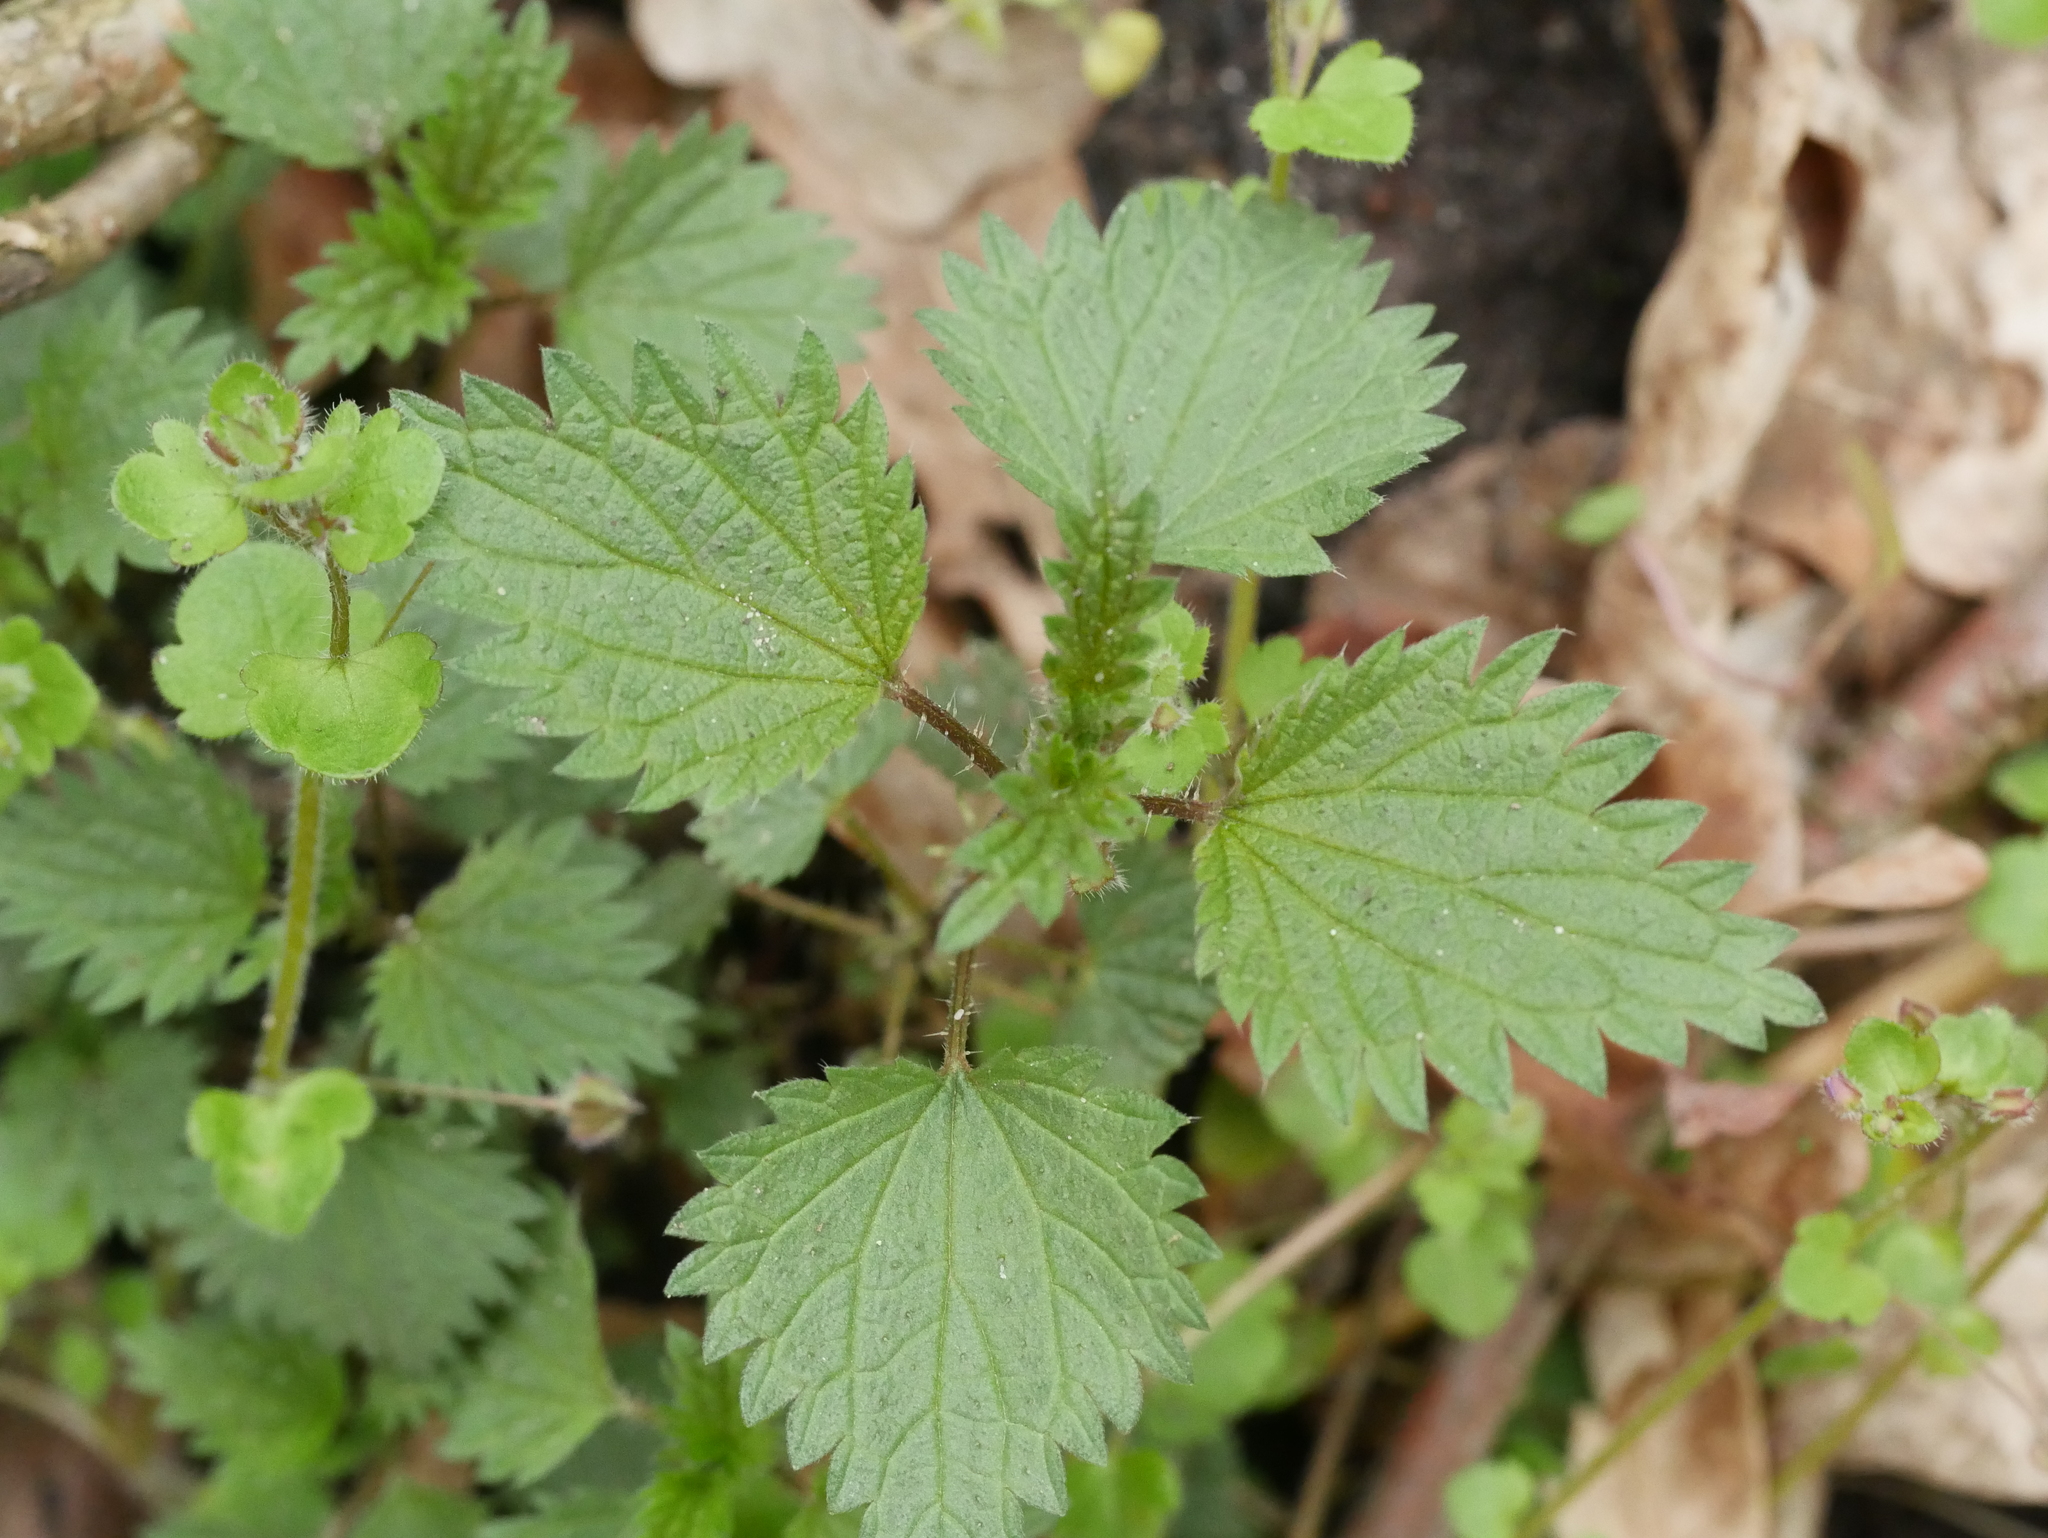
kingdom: Plantae
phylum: Tracheophyta
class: Magnoliopsida
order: Rosales
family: Urticaceae
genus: Urtica
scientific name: Urtica dioica
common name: Common nettle
